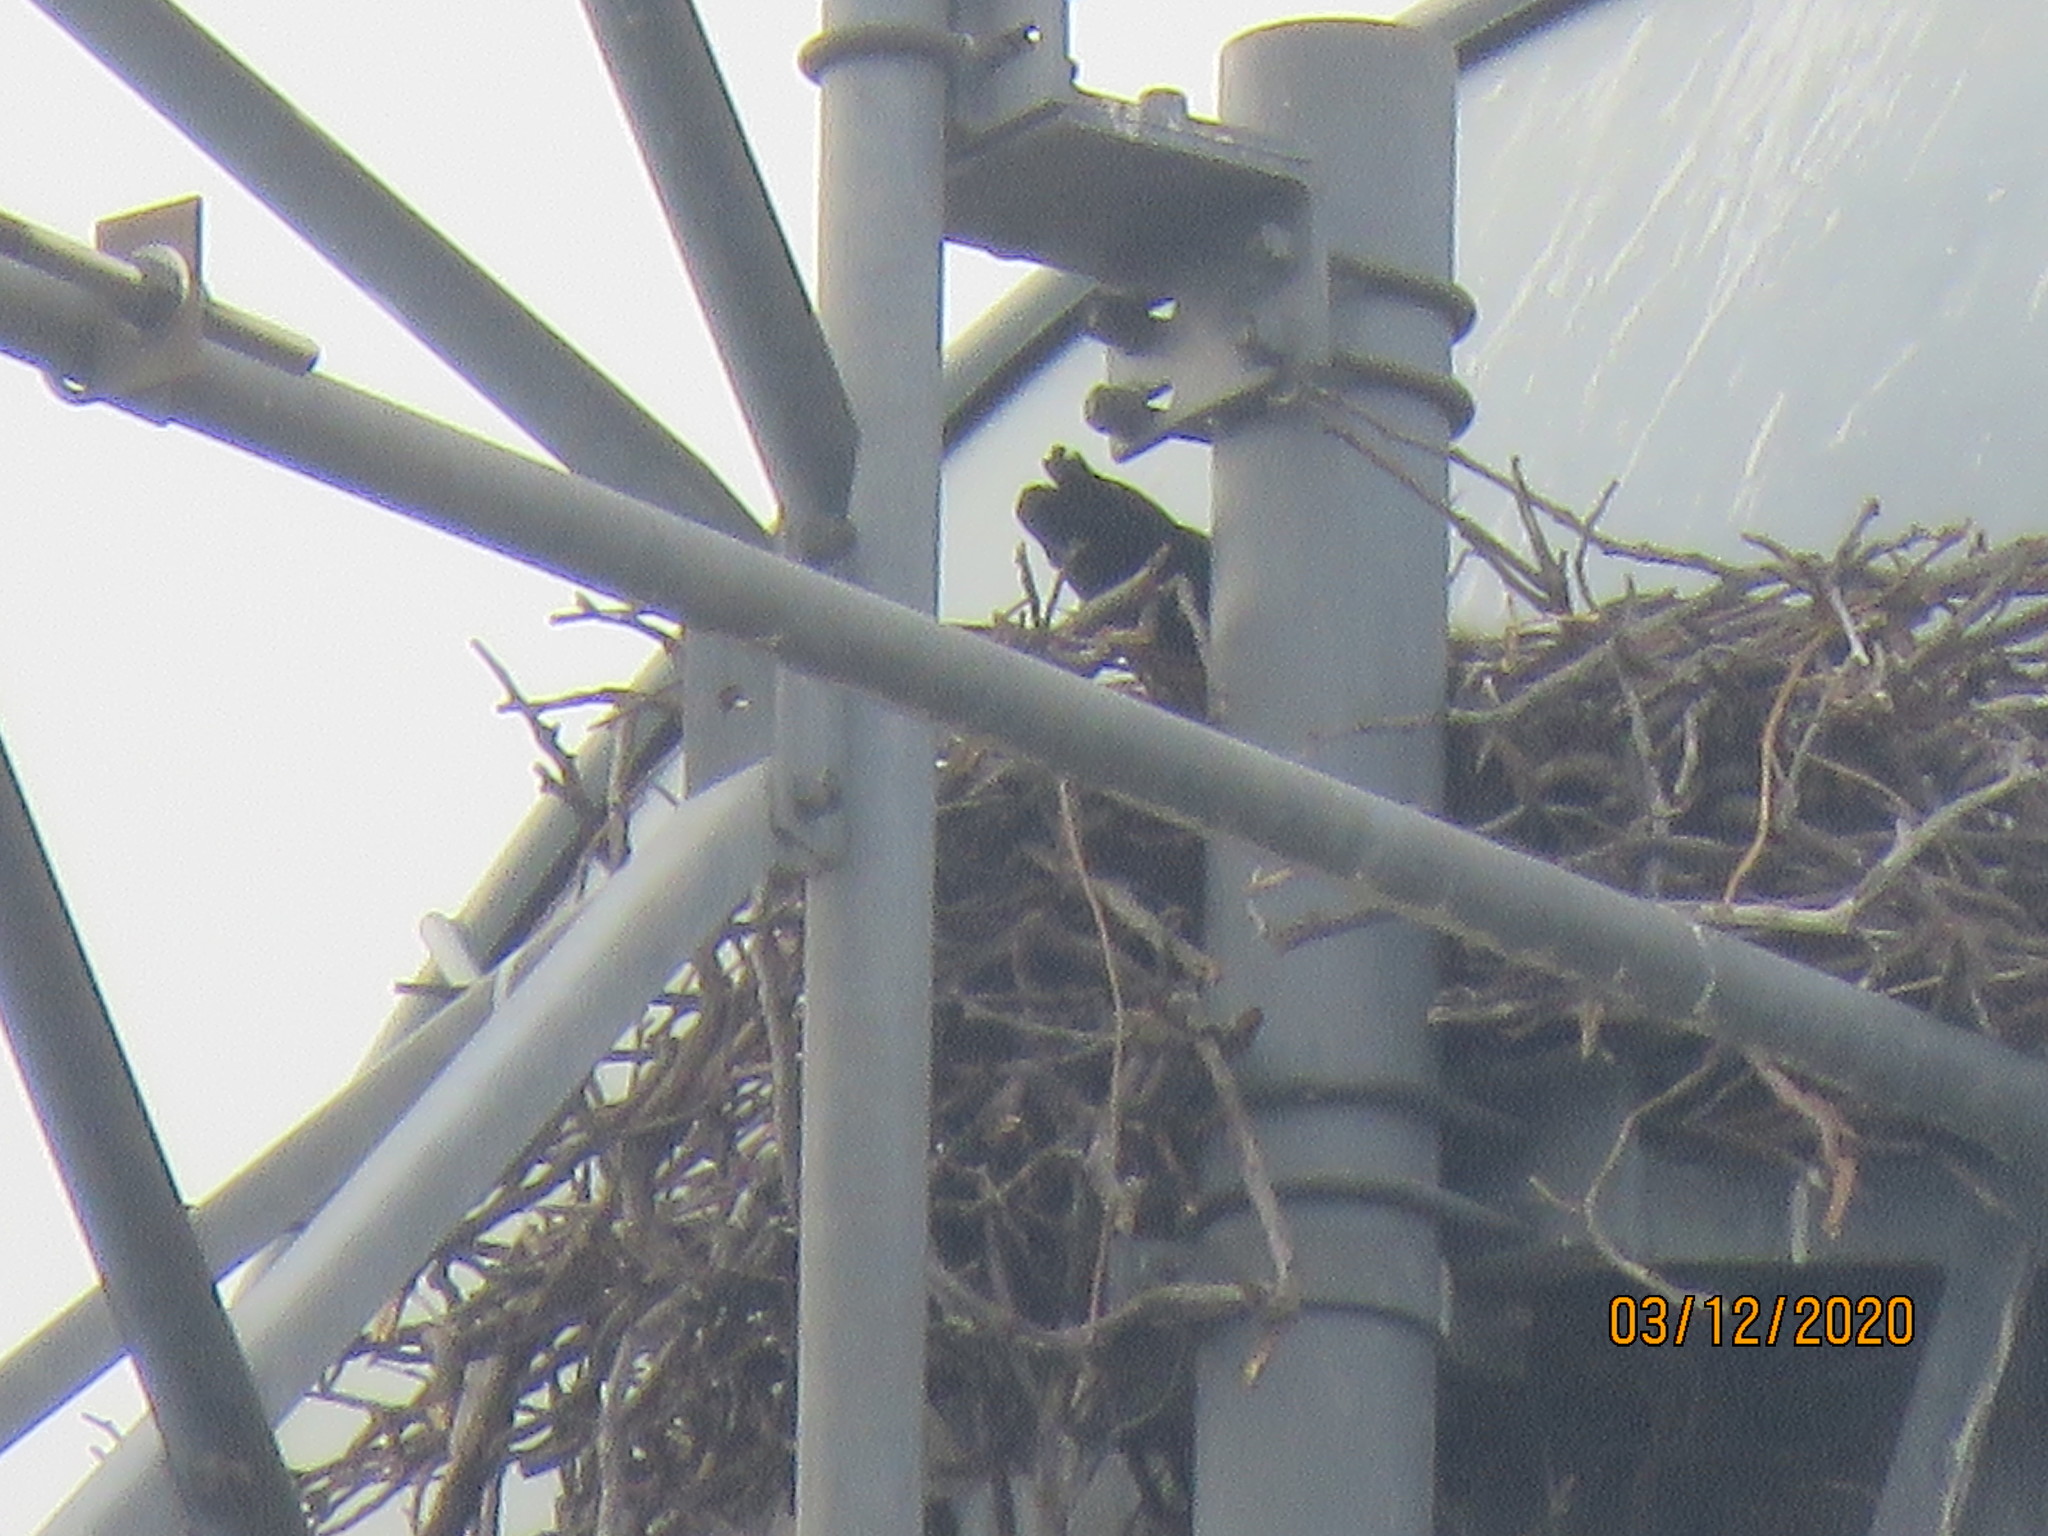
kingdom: Animalia
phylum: Chordata
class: Aves
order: Passeriformes
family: Corvidae
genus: Corvus
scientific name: Corvus corax
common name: Common raven
